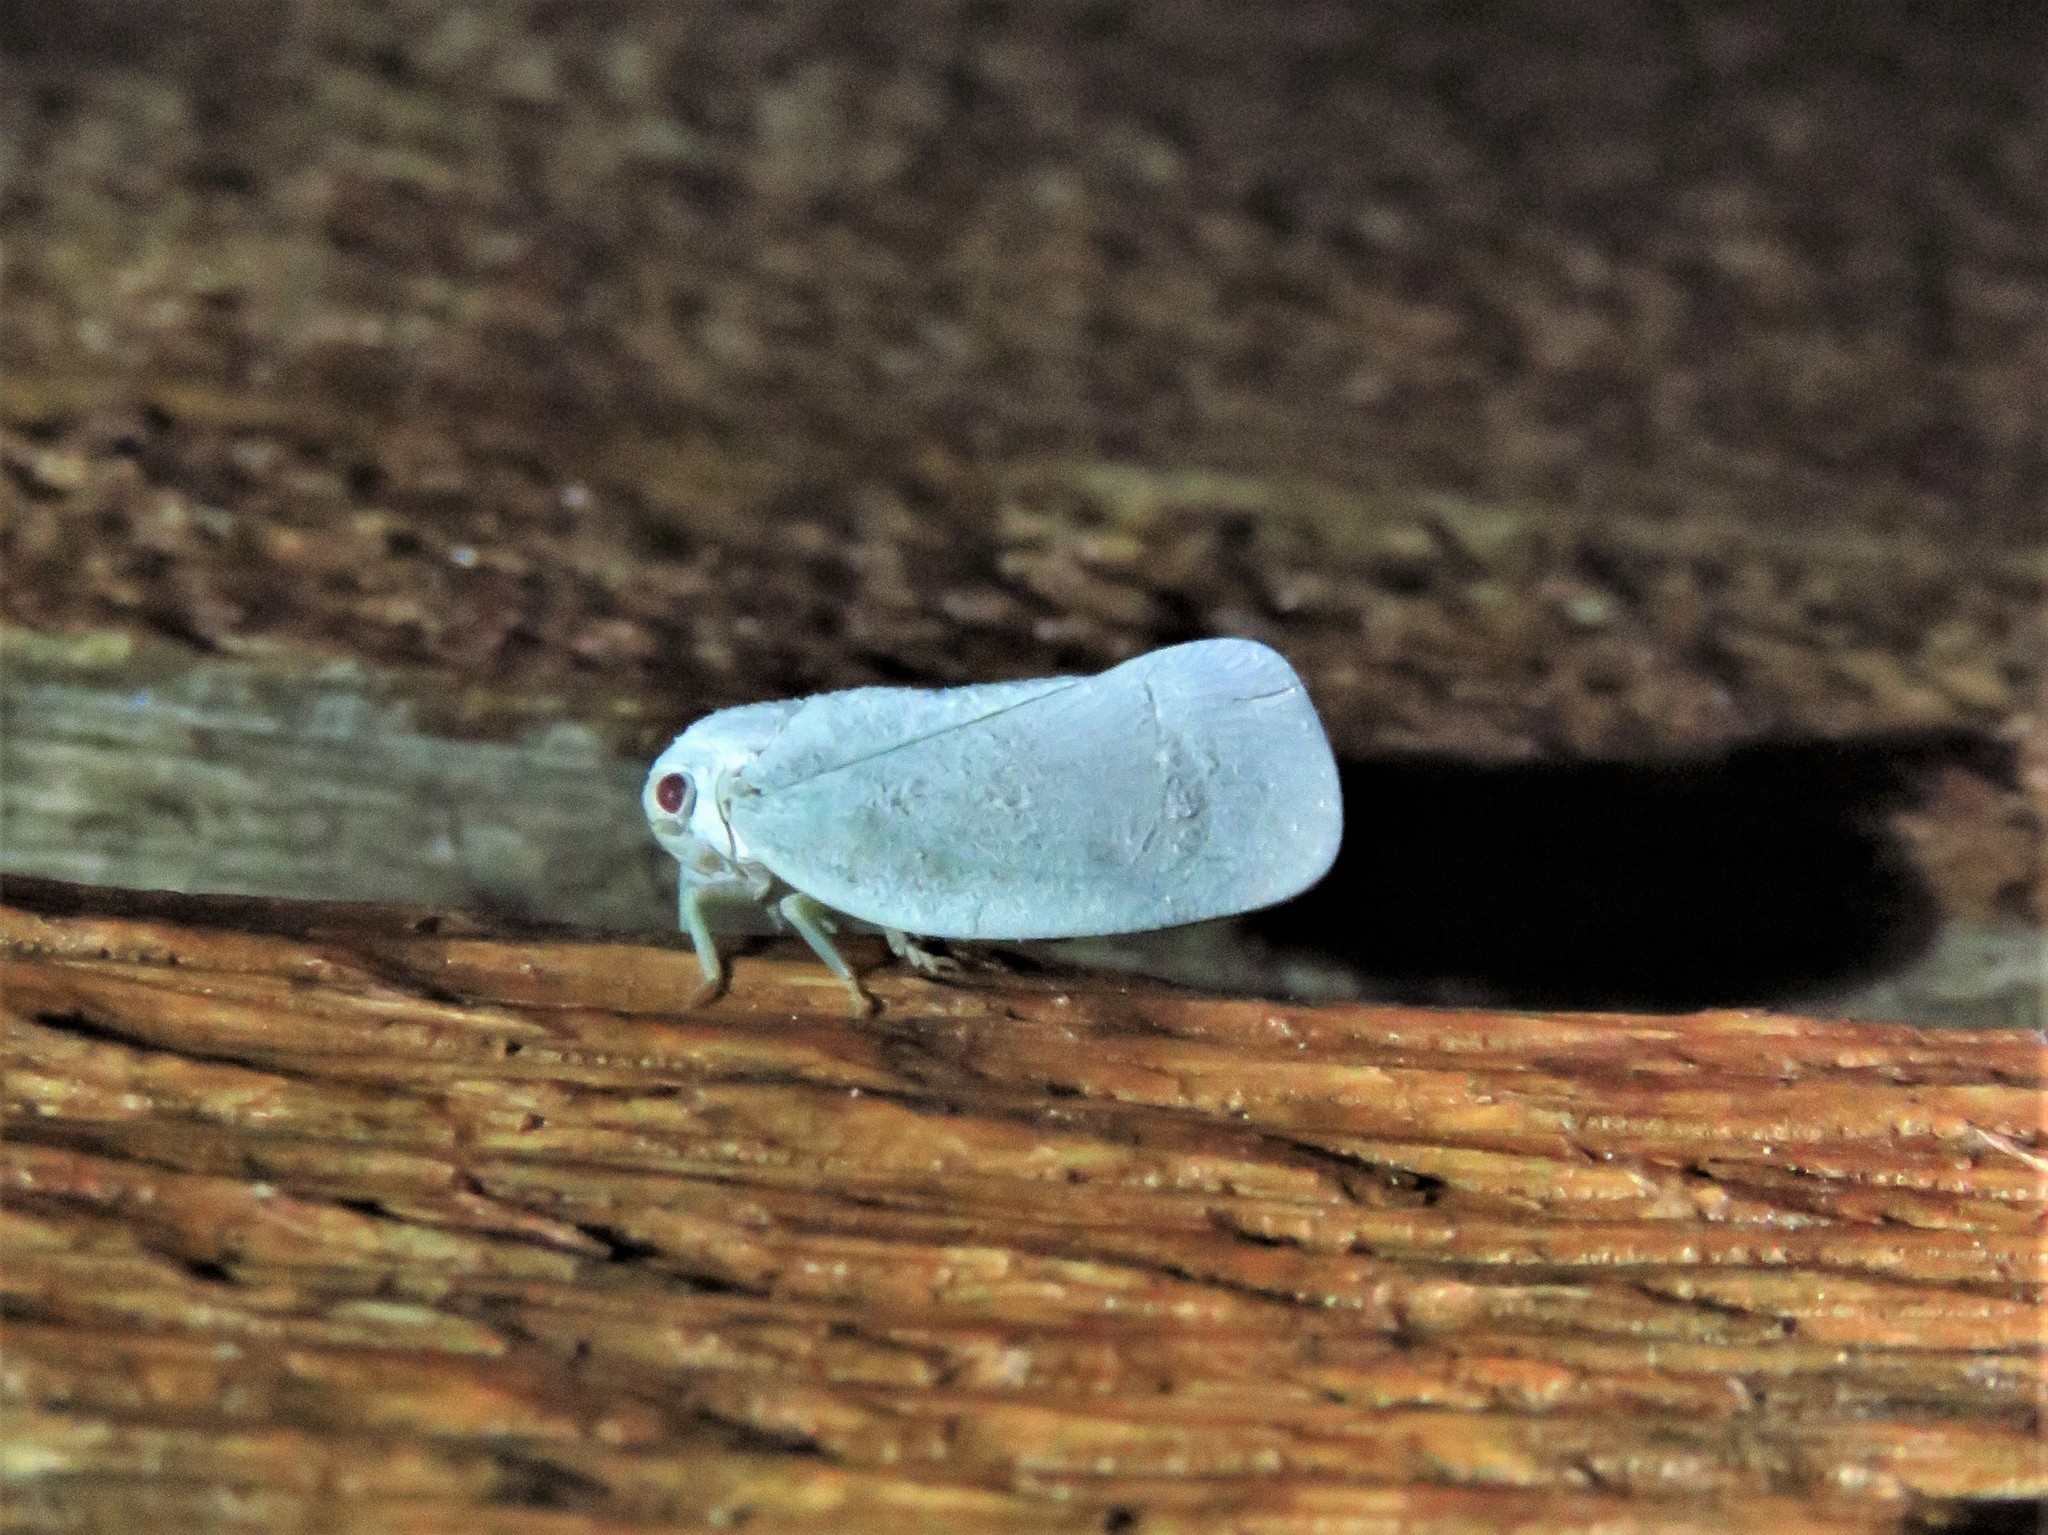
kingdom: Animalia
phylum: Arthropoda
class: Insecta
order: Hemiptera
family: Flatidae
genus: Flatormenis
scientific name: Flatormenis saucia
